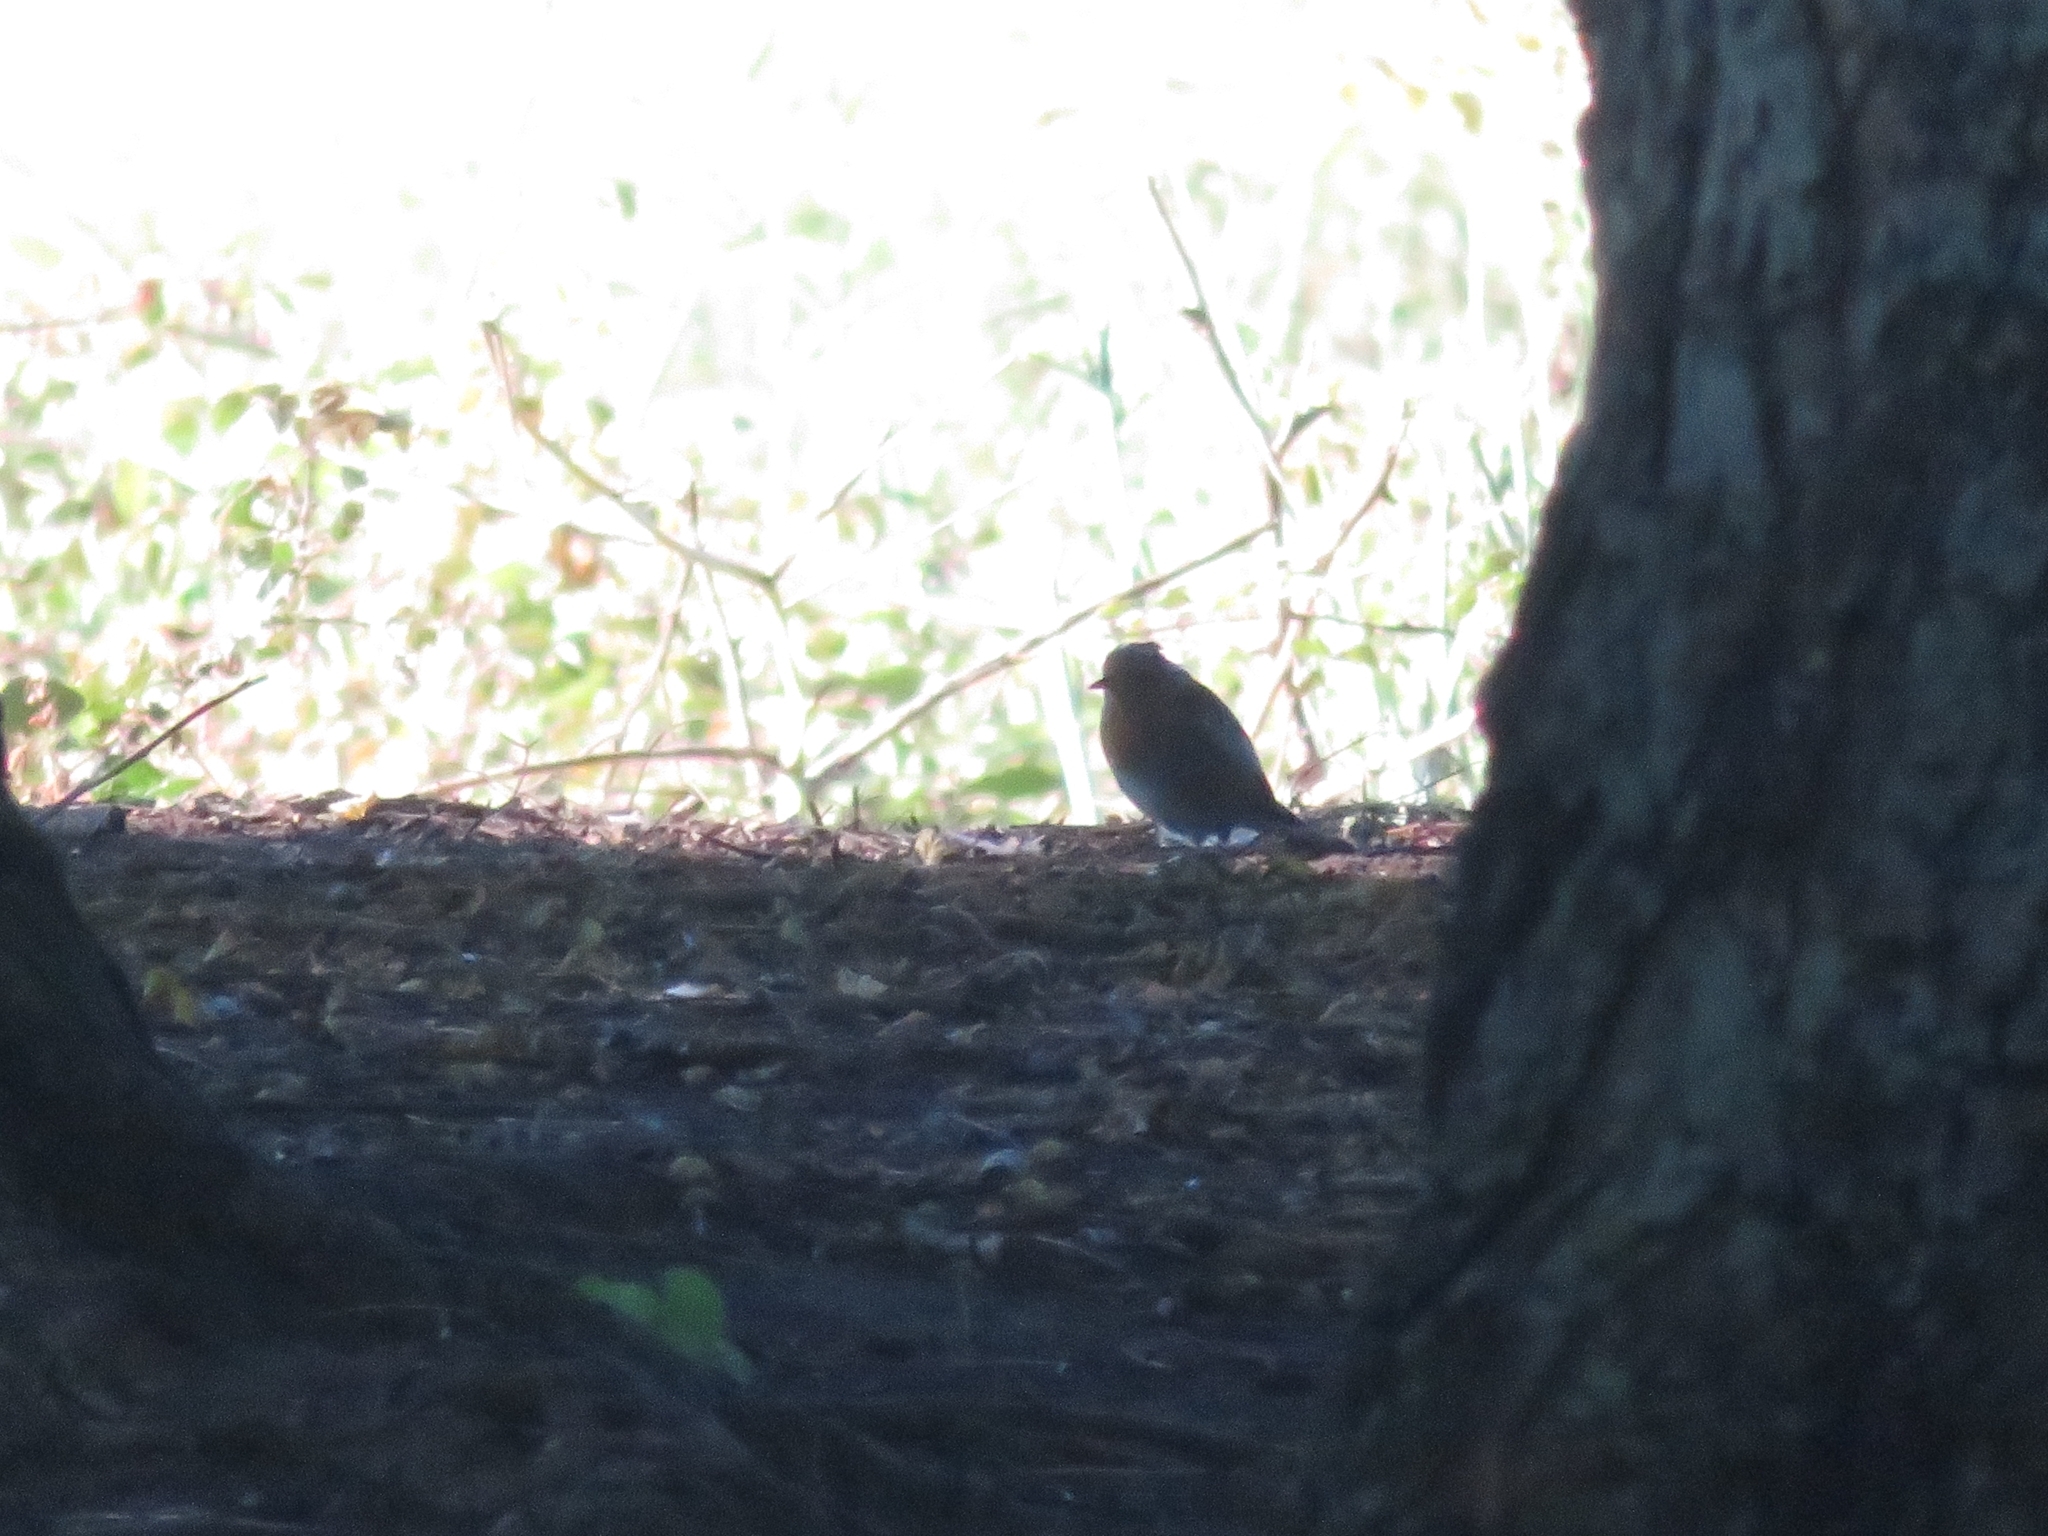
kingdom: Animalia
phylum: Chordata
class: Aves
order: Passeriformes
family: Muscicapidae
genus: Erithacus
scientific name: Erithacus rubecula
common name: European robin
